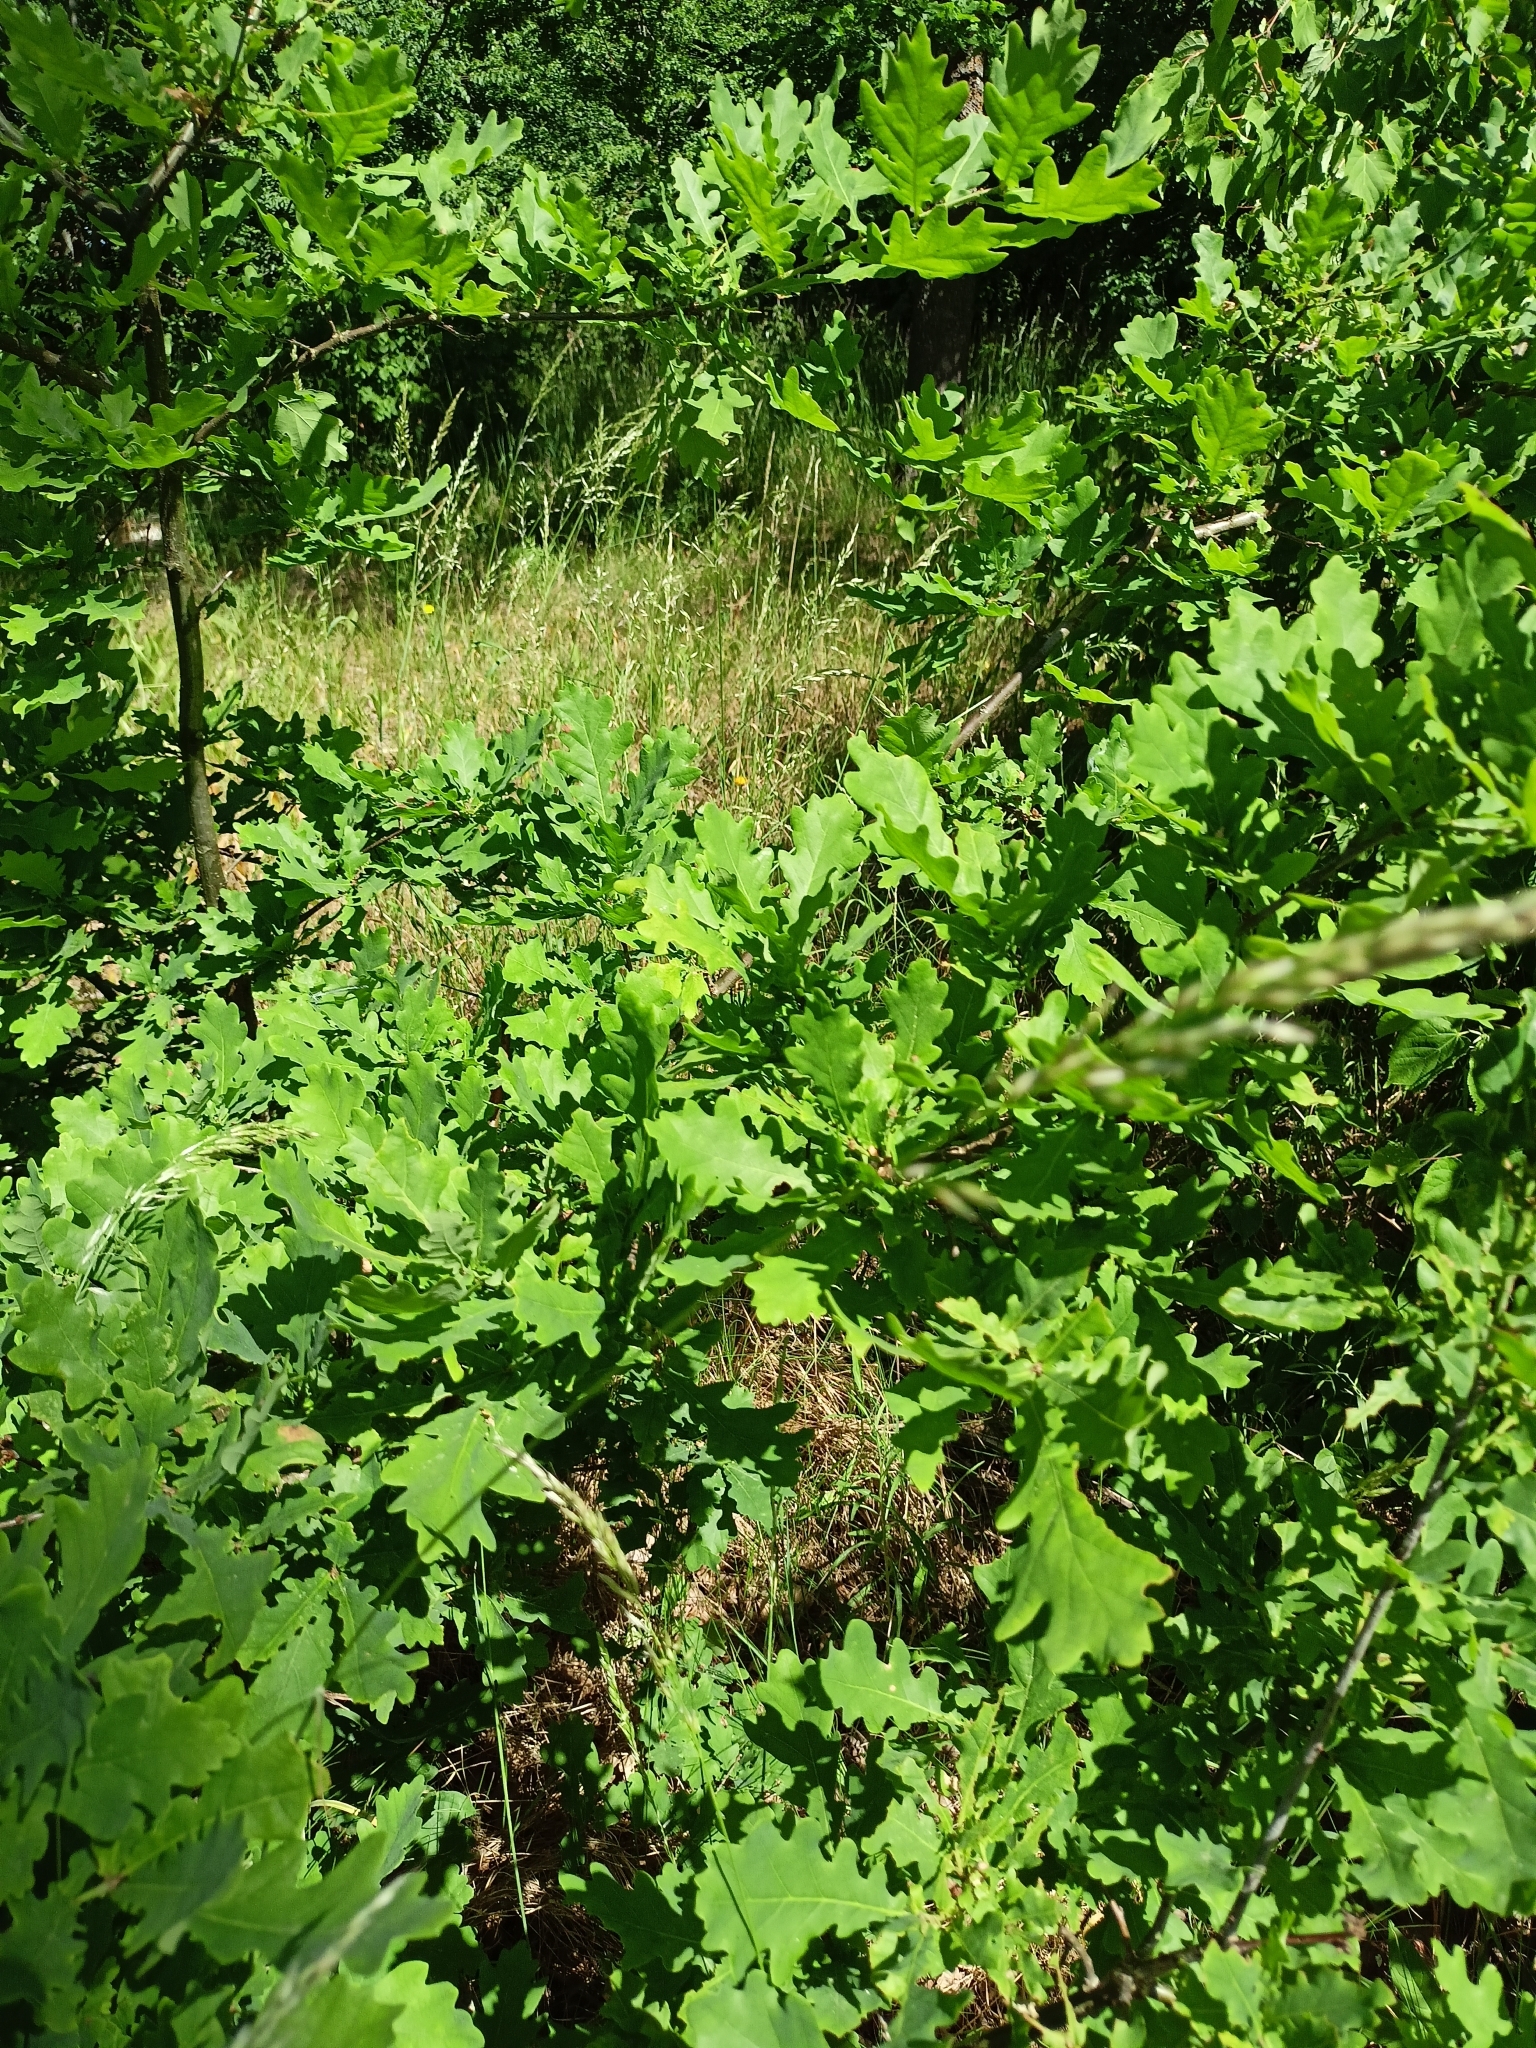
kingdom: Plantae
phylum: Tracheophyta
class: Magnoliopsida
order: Fagales
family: Fagaceae
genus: Quercus
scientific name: Quercus robur
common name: Pedunculate oak
